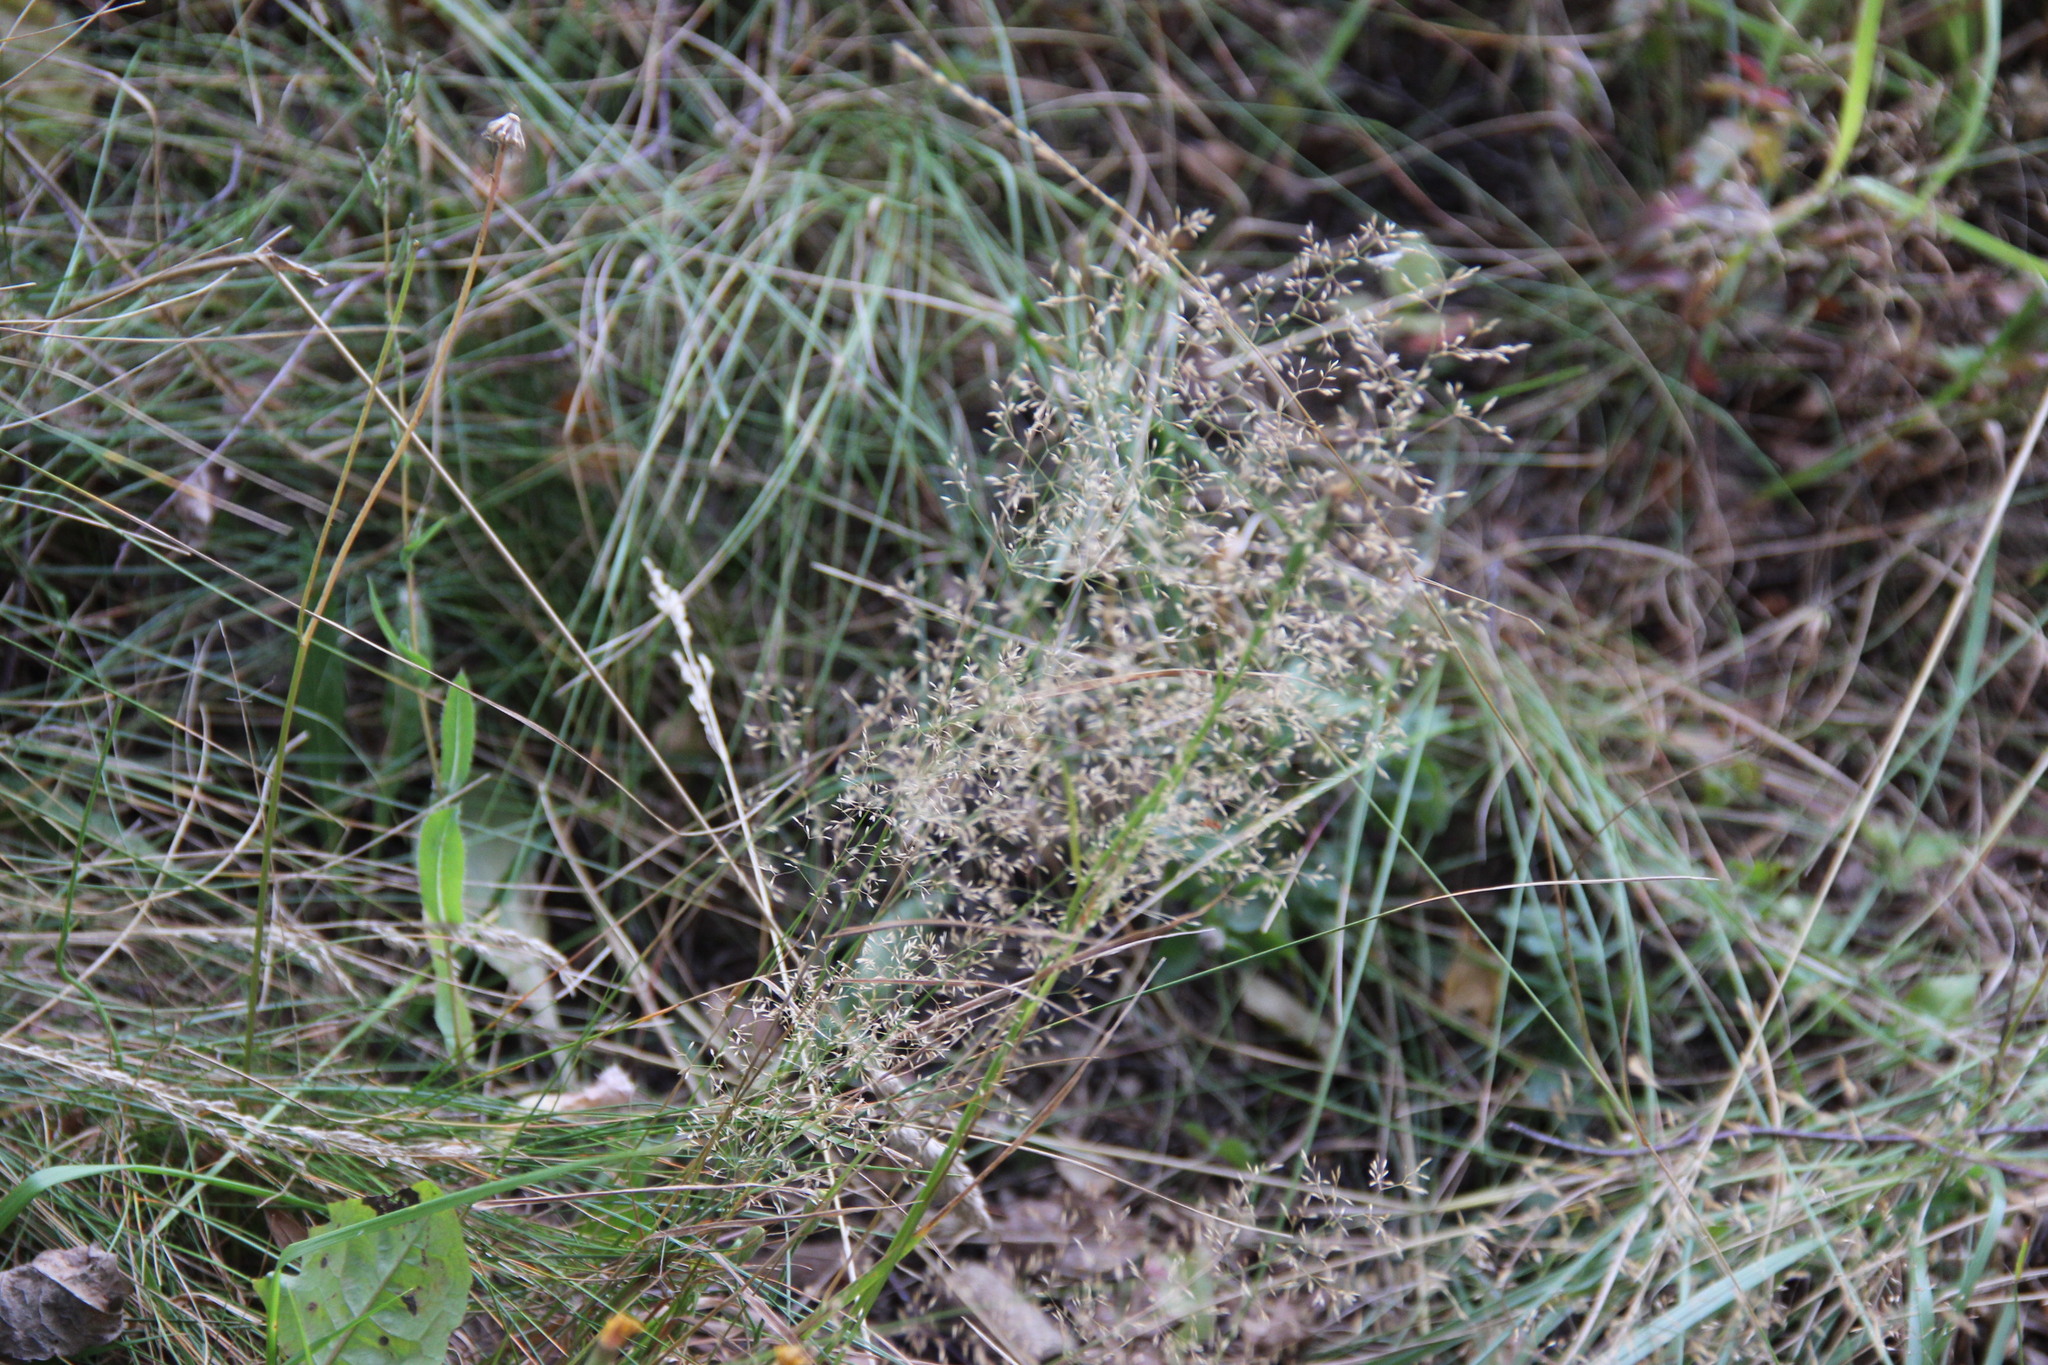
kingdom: Plantae
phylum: Tracheophyta
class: Liliopsida
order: Poales
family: Poaceae
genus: Agrostis
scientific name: Agrostis capillaris
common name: Colonial bentgrass
